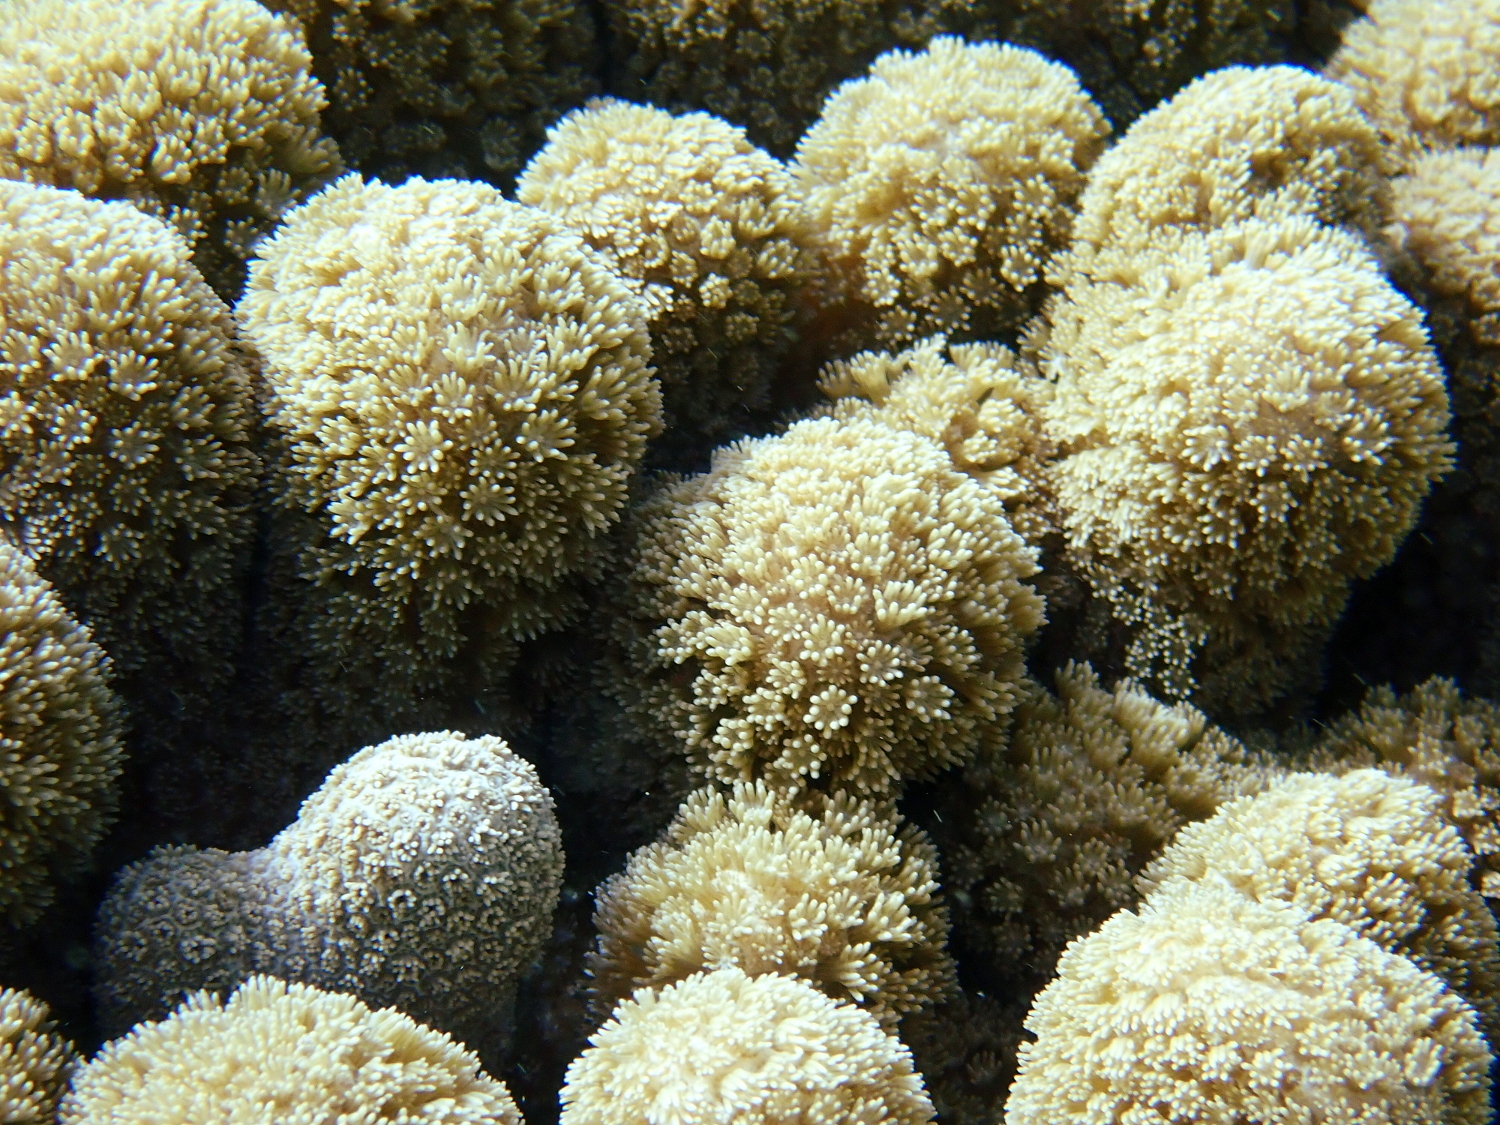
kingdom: Animalia
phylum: Cnidaria
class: Anthozoa
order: Scleractinia
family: Poritidae
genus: Porites
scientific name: Porites furcata
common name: Hump coral
